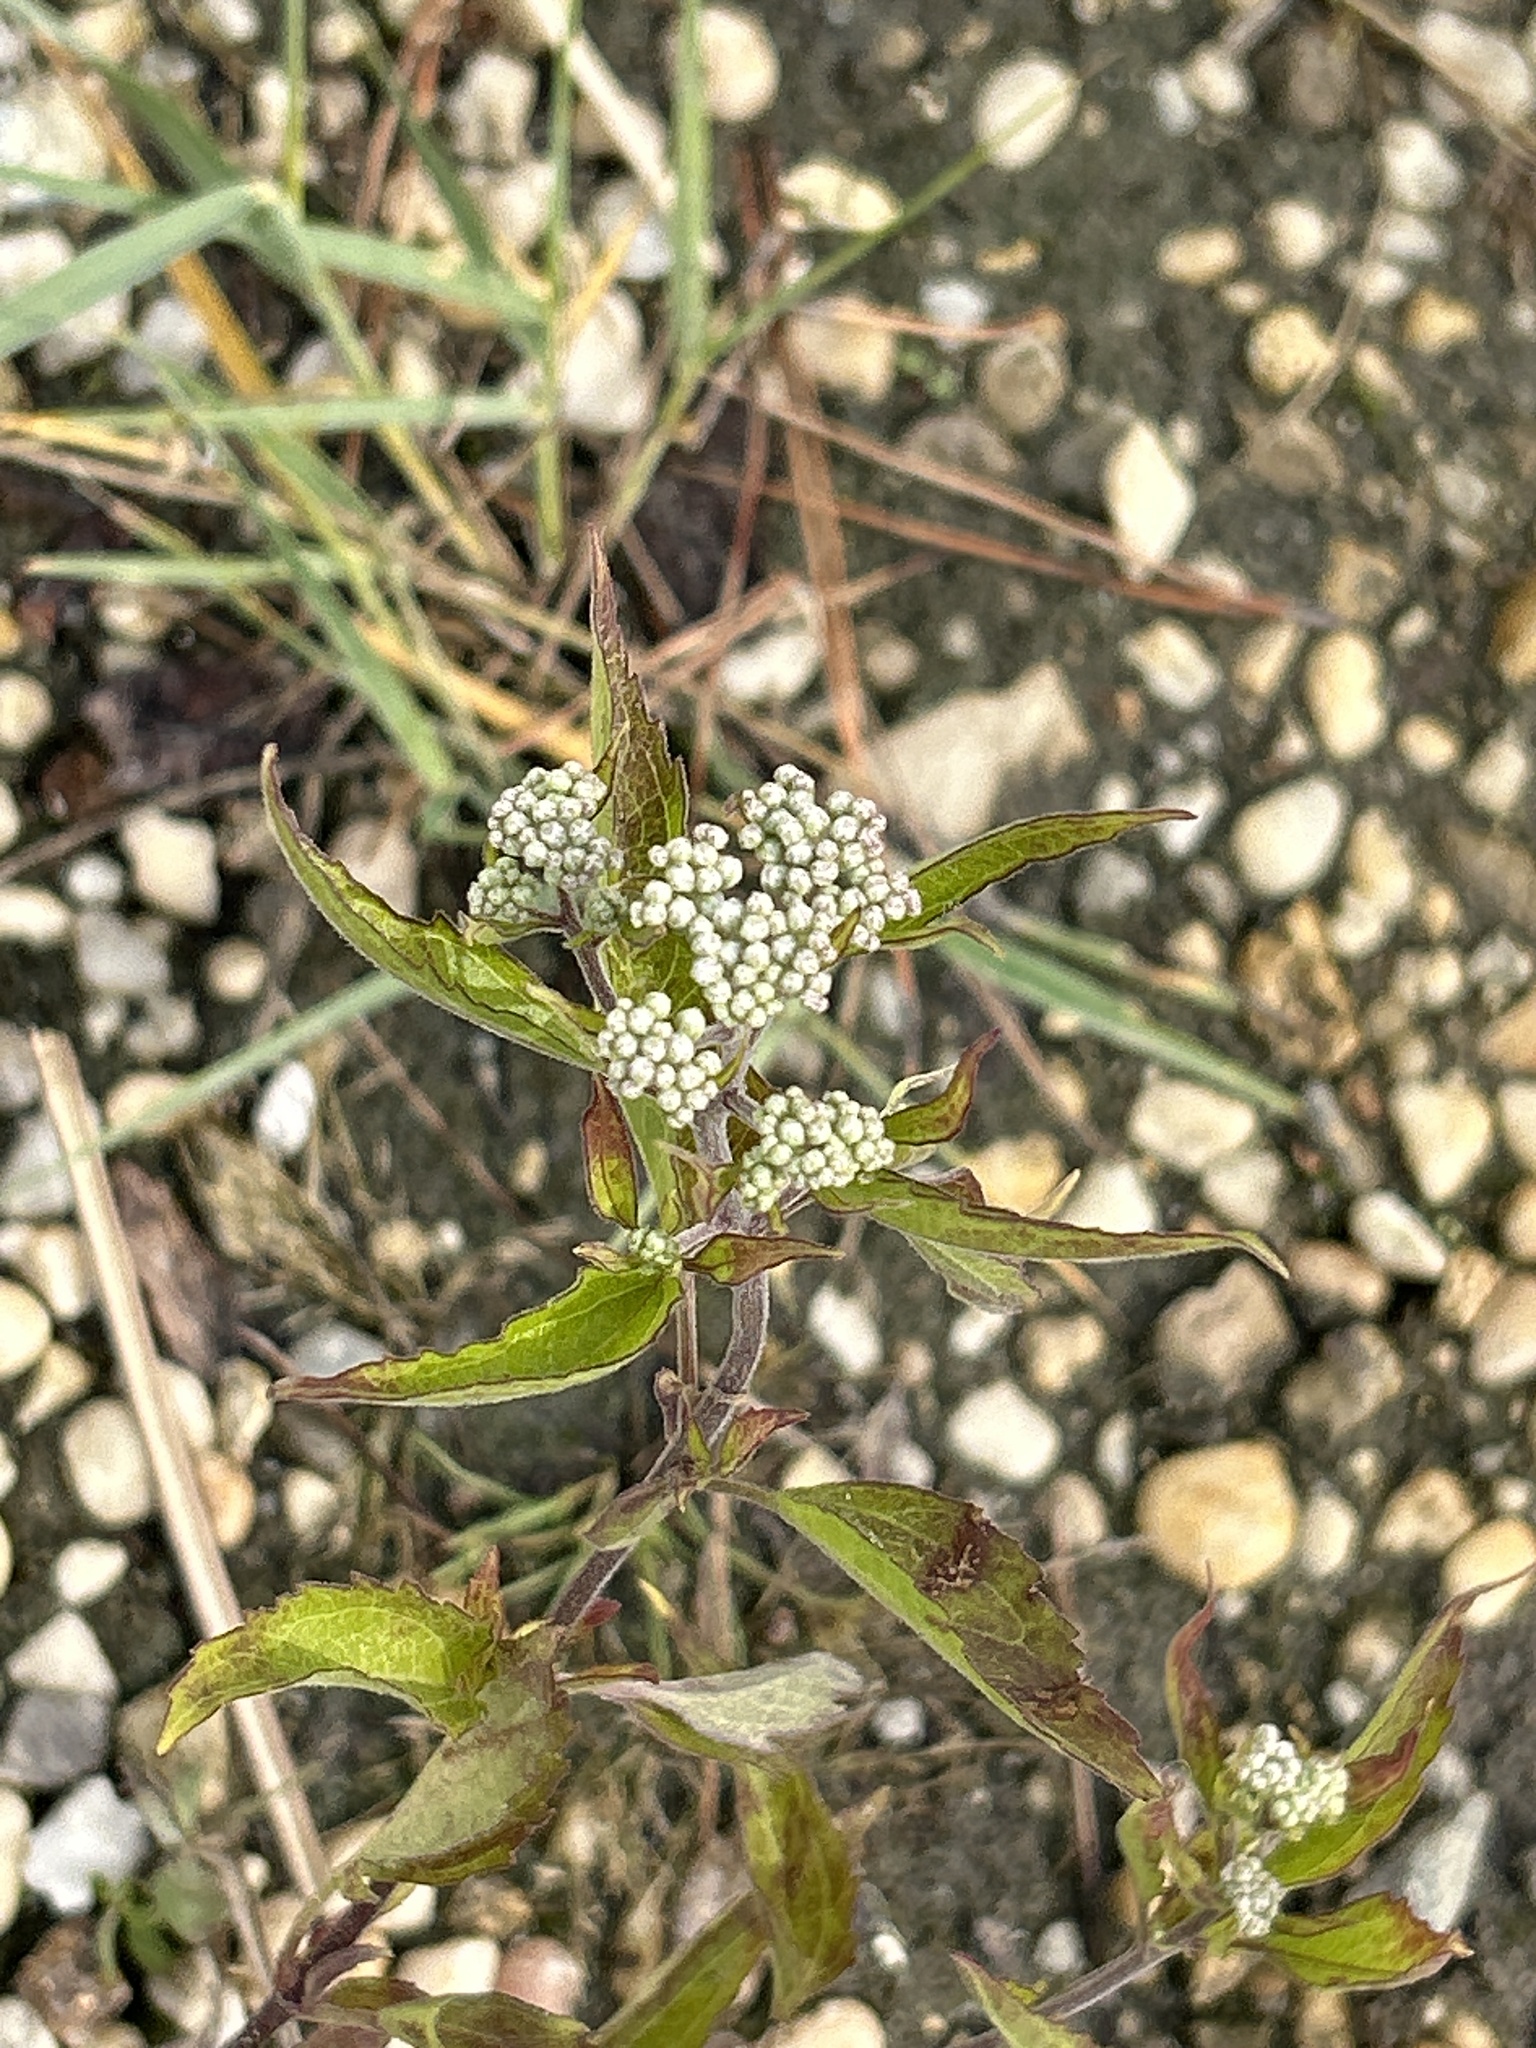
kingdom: Plantae
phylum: Tracheophyta
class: Magnoliopsida
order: Asterales
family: Asteraceae
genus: Eupatorium
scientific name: Eupatorium serotinum
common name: Late boneset
